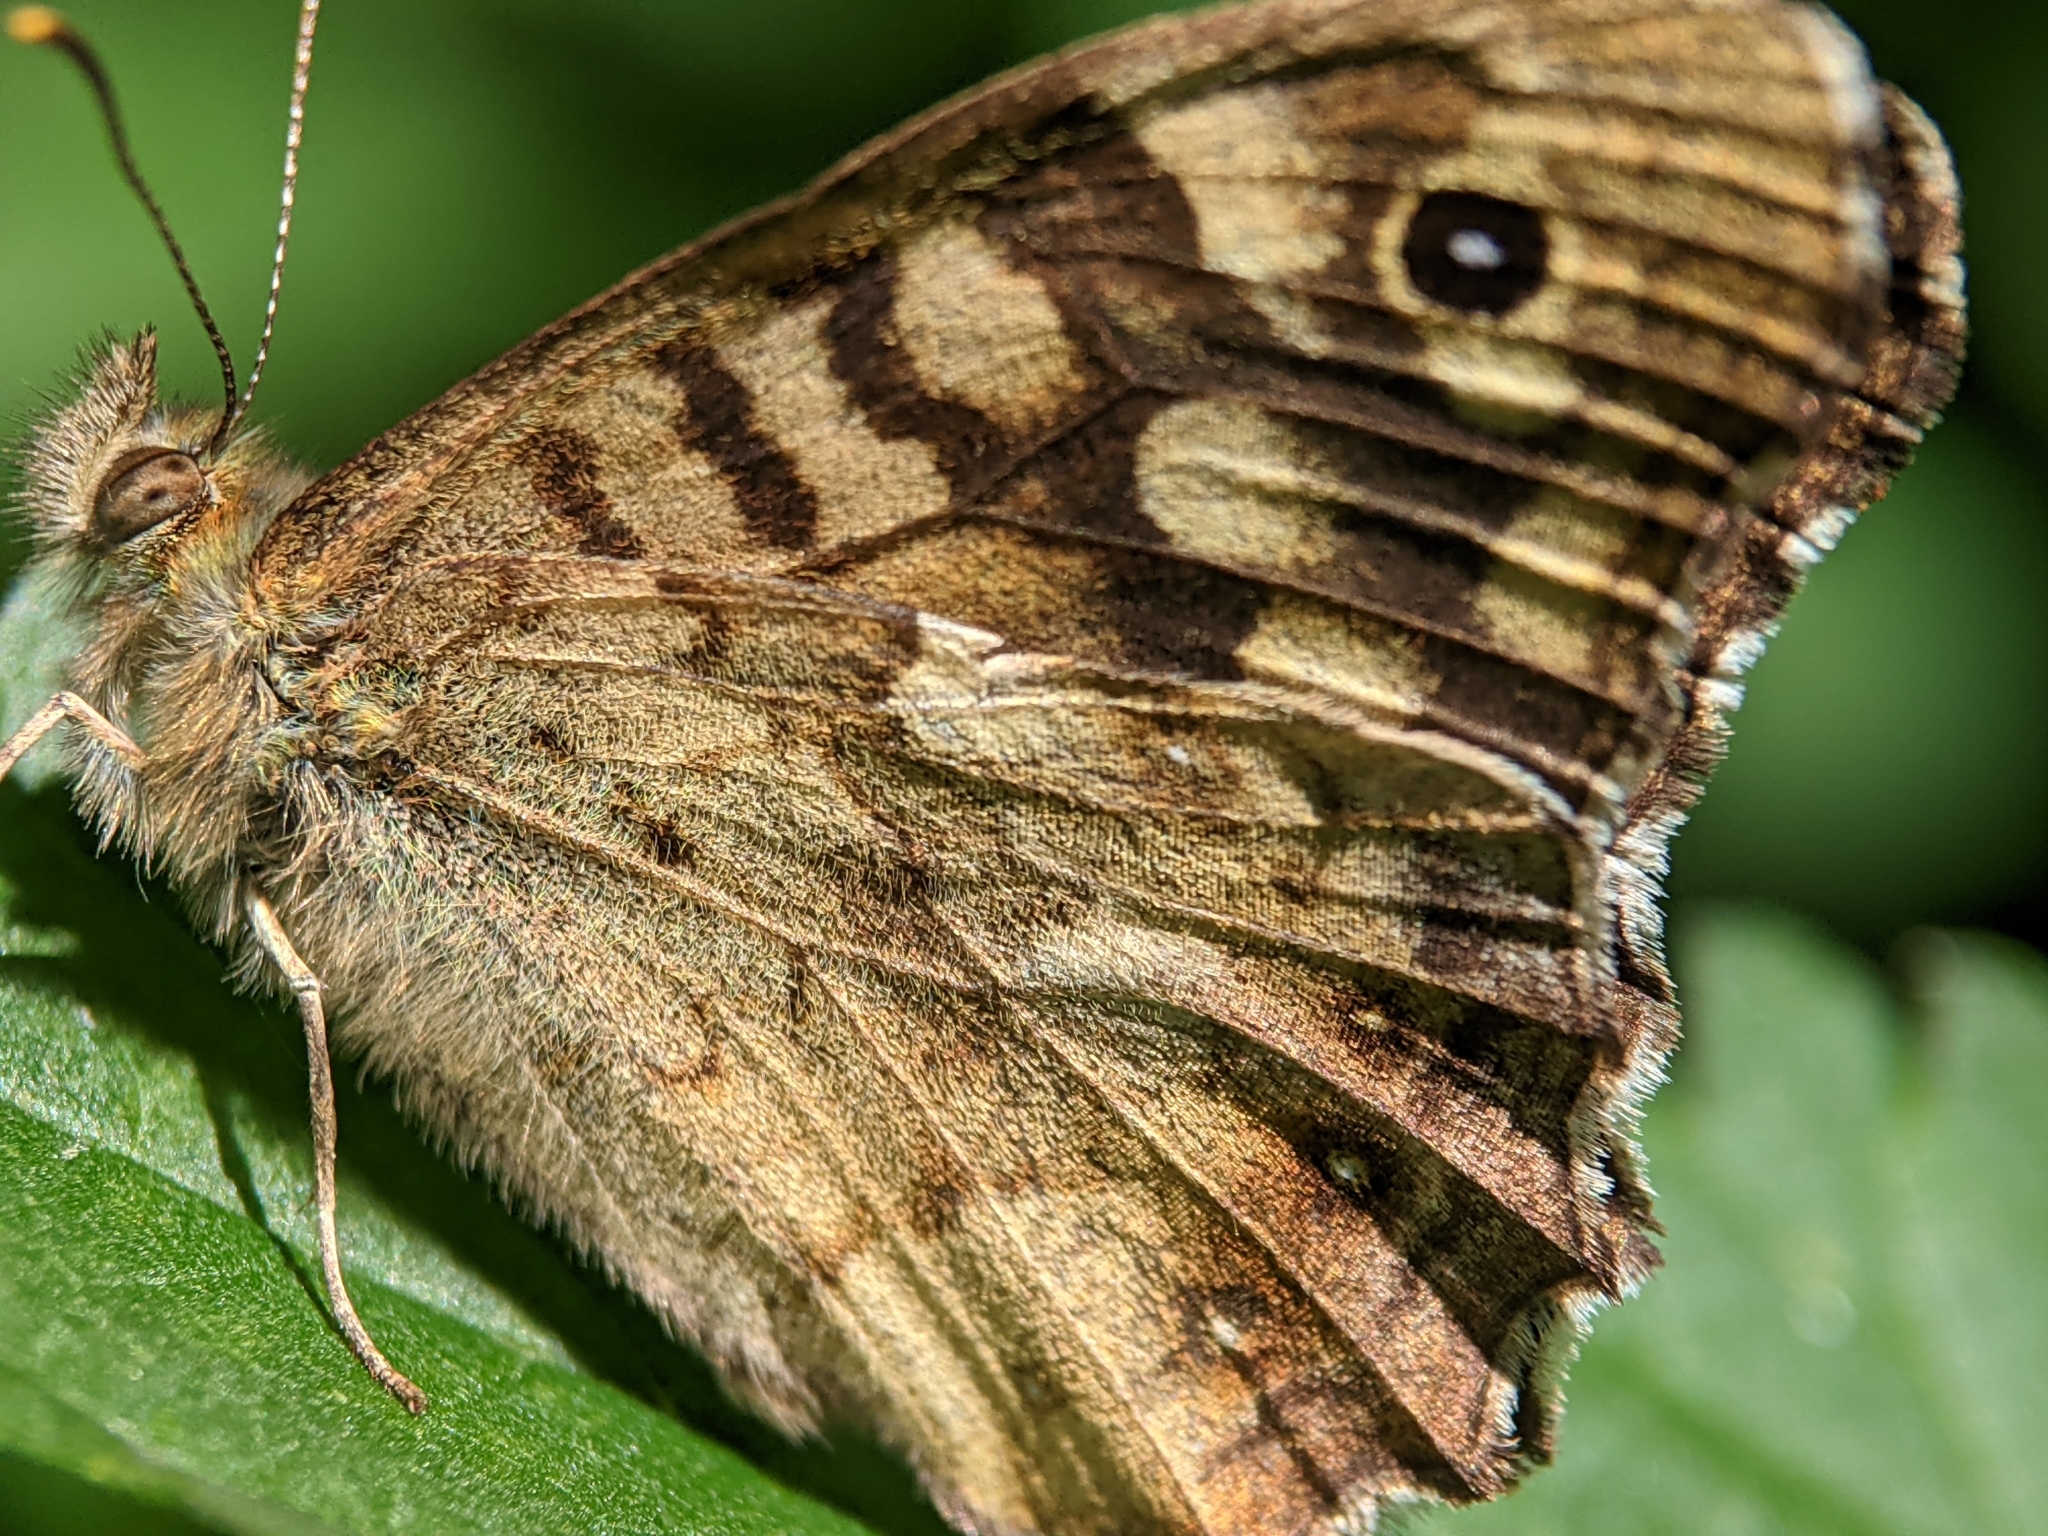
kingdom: Animalia
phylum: Arthropoda
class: Insecta
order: Lepidoptera
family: Nymphalidae
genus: Pararge
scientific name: Pararge aegeria
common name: Speckled wood
